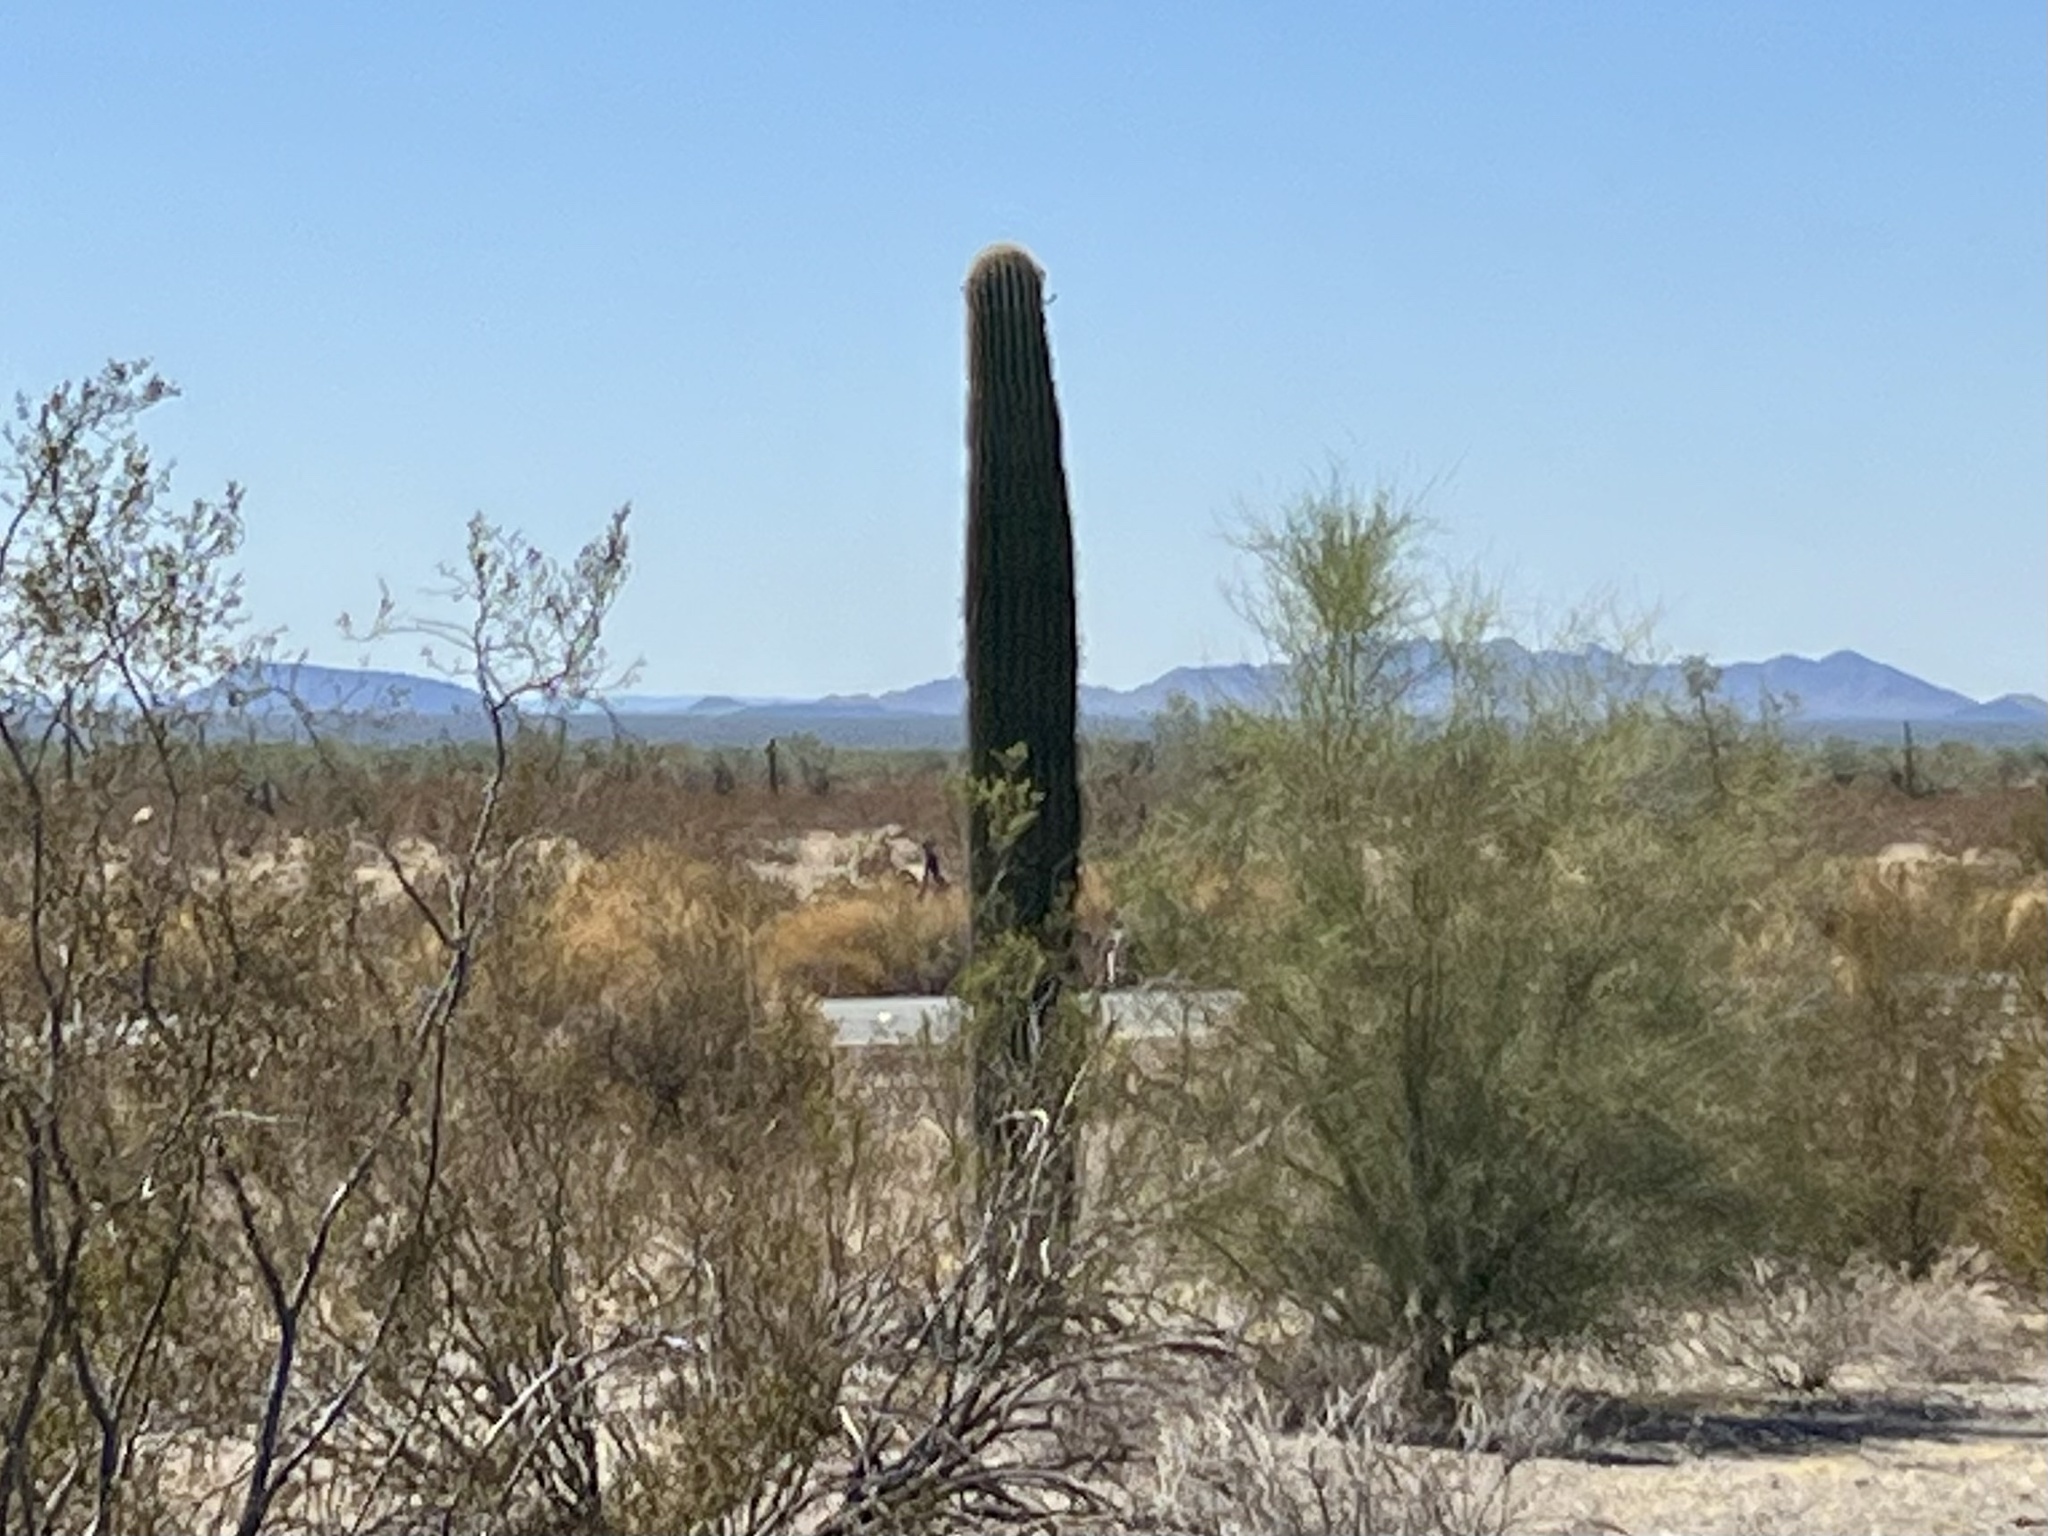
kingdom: Plantae
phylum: Tracheophyta
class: Magnoliopsida
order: Caryophyllales
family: Cactaceae
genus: Carnegiea
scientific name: Carnegiea gigantea
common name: Saguaro
